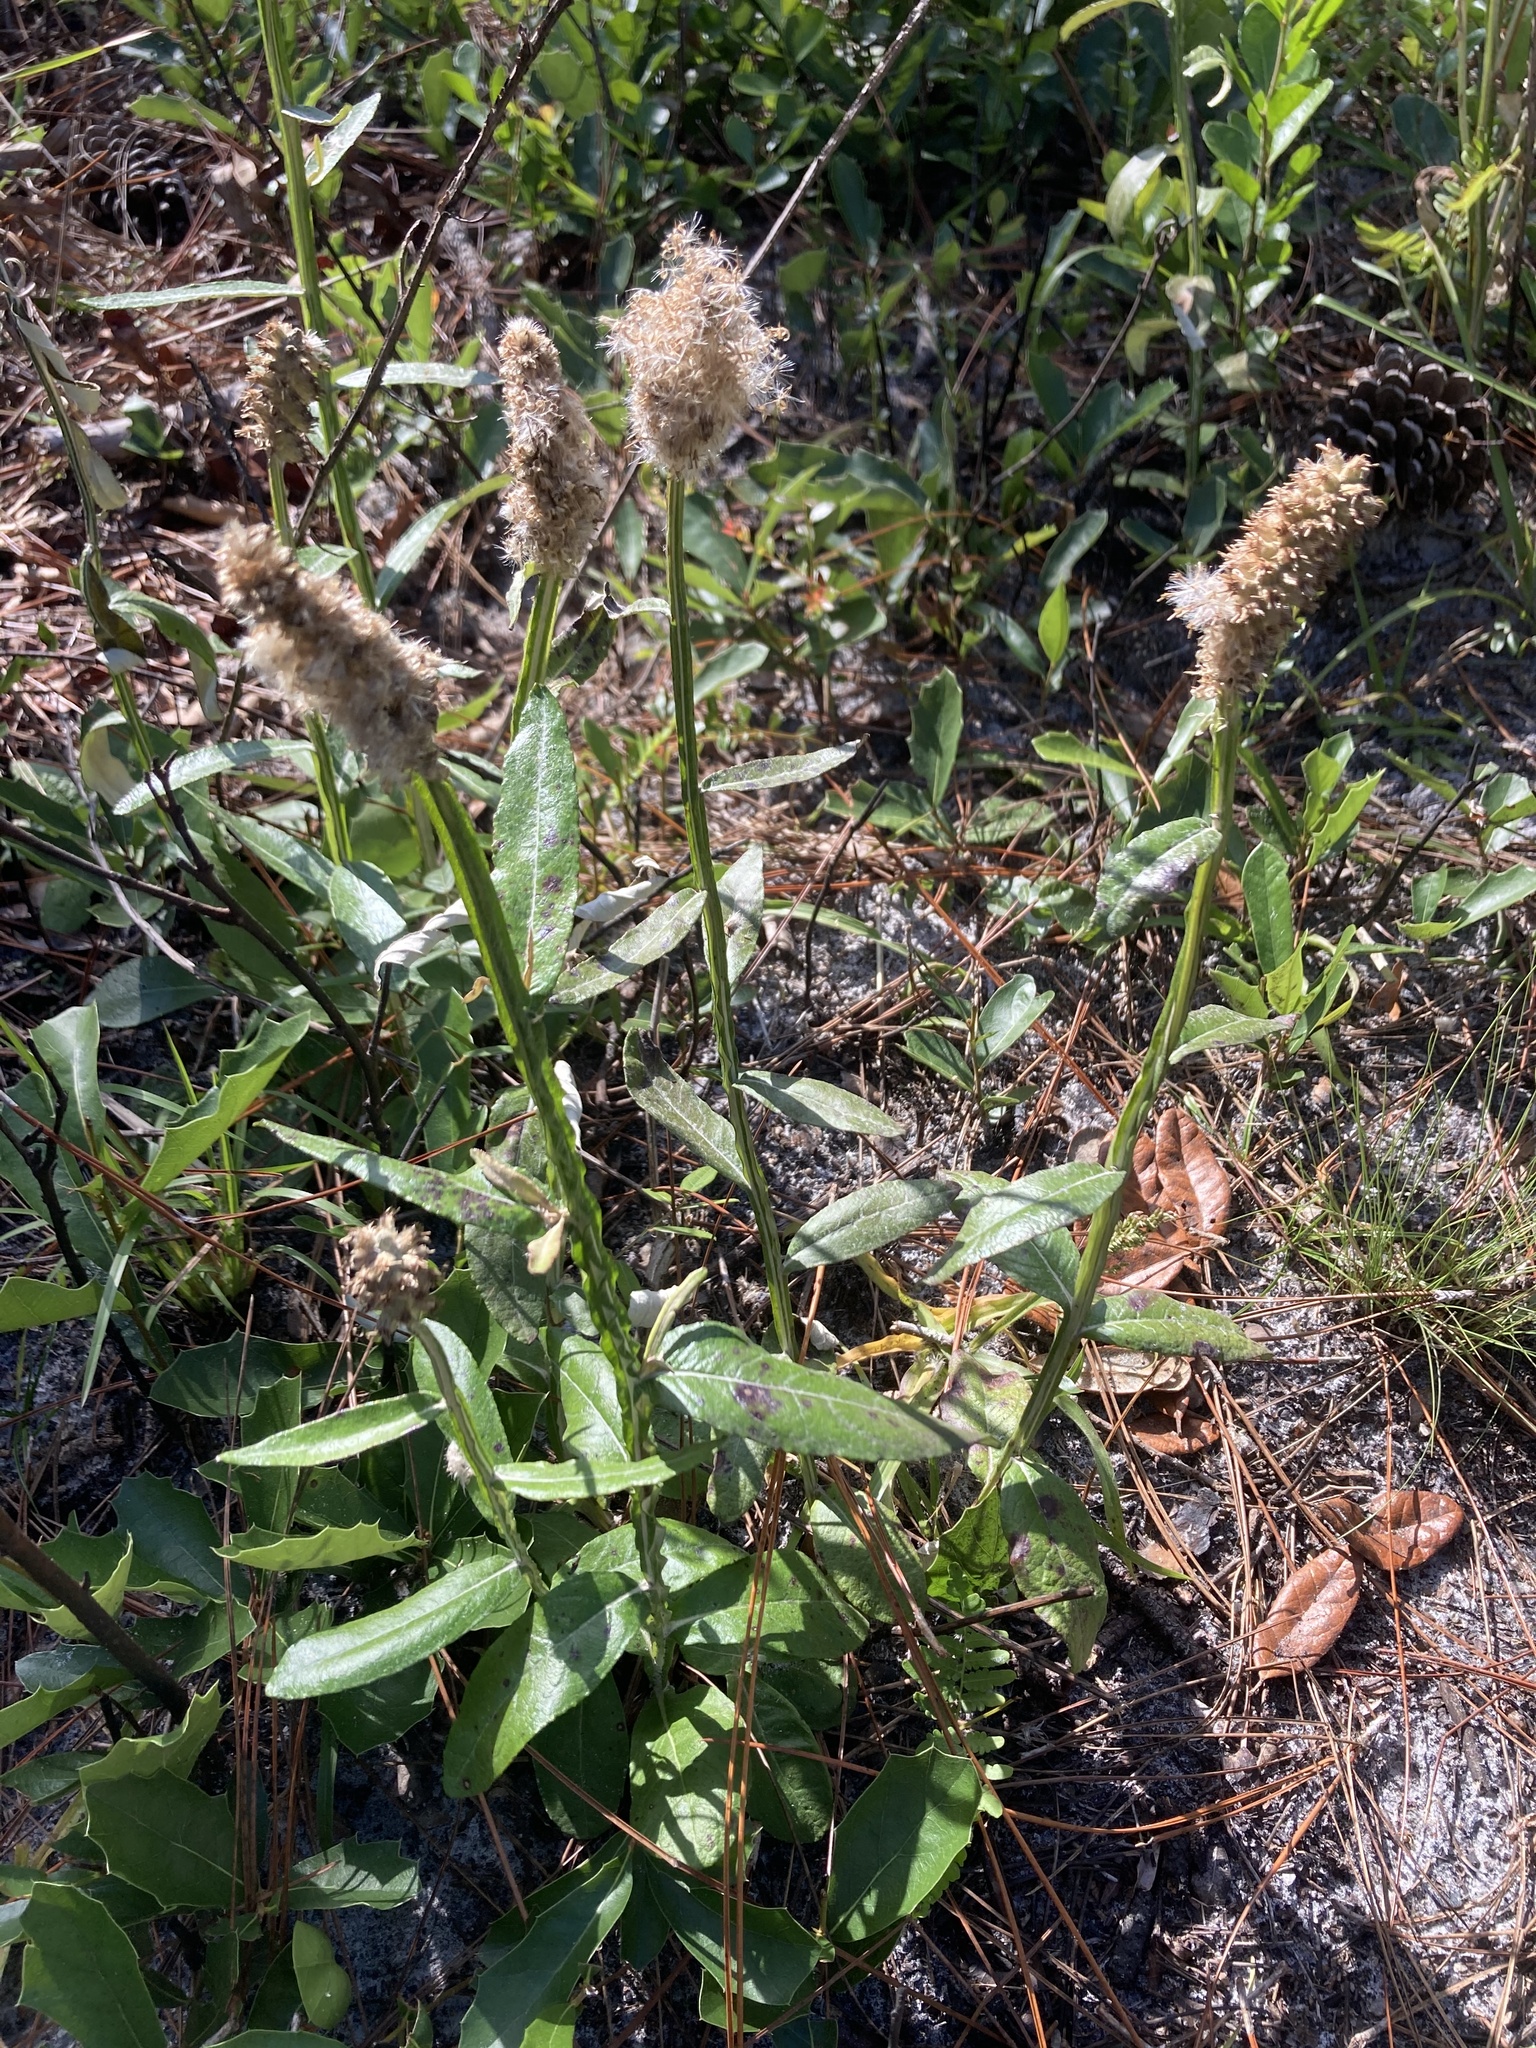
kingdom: Plantae
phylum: Tracheophyta
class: Magnoliopsida
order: Asterales
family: Asteraceae
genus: Pterocaulon
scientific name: Pterocaulon pycnostachyum
